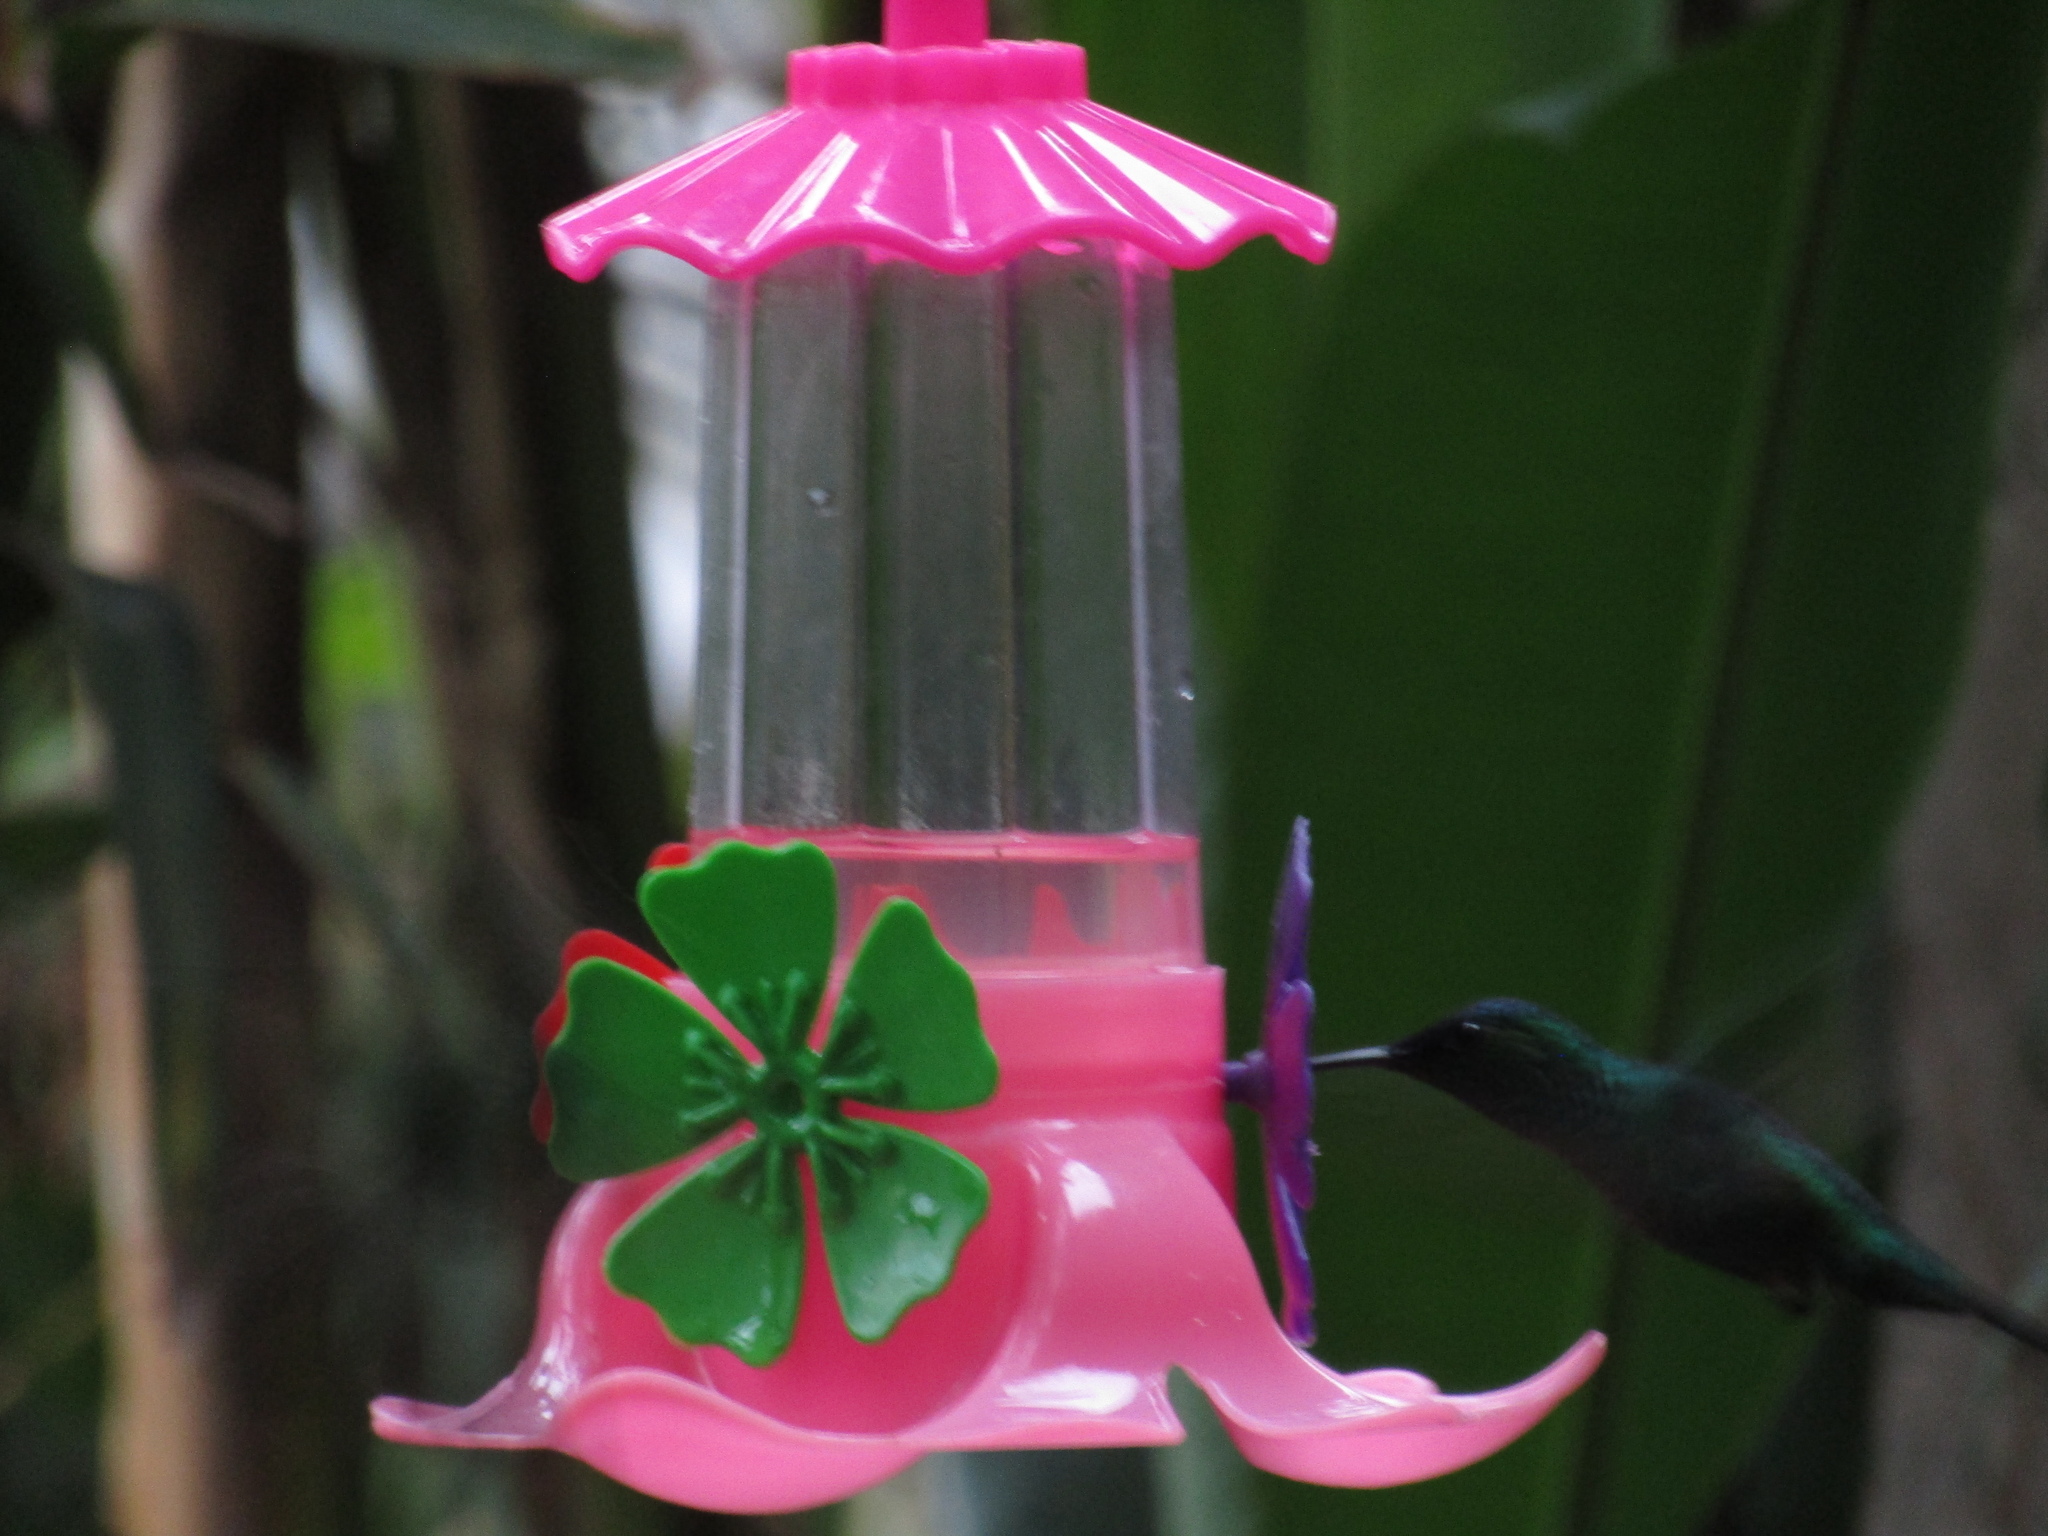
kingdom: Animalia
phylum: Chordata
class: Aves
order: Apodiformes
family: Trochilidae
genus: Thalurania
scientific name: Thalurania glaucopis
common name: Violet-capped woodnymph
